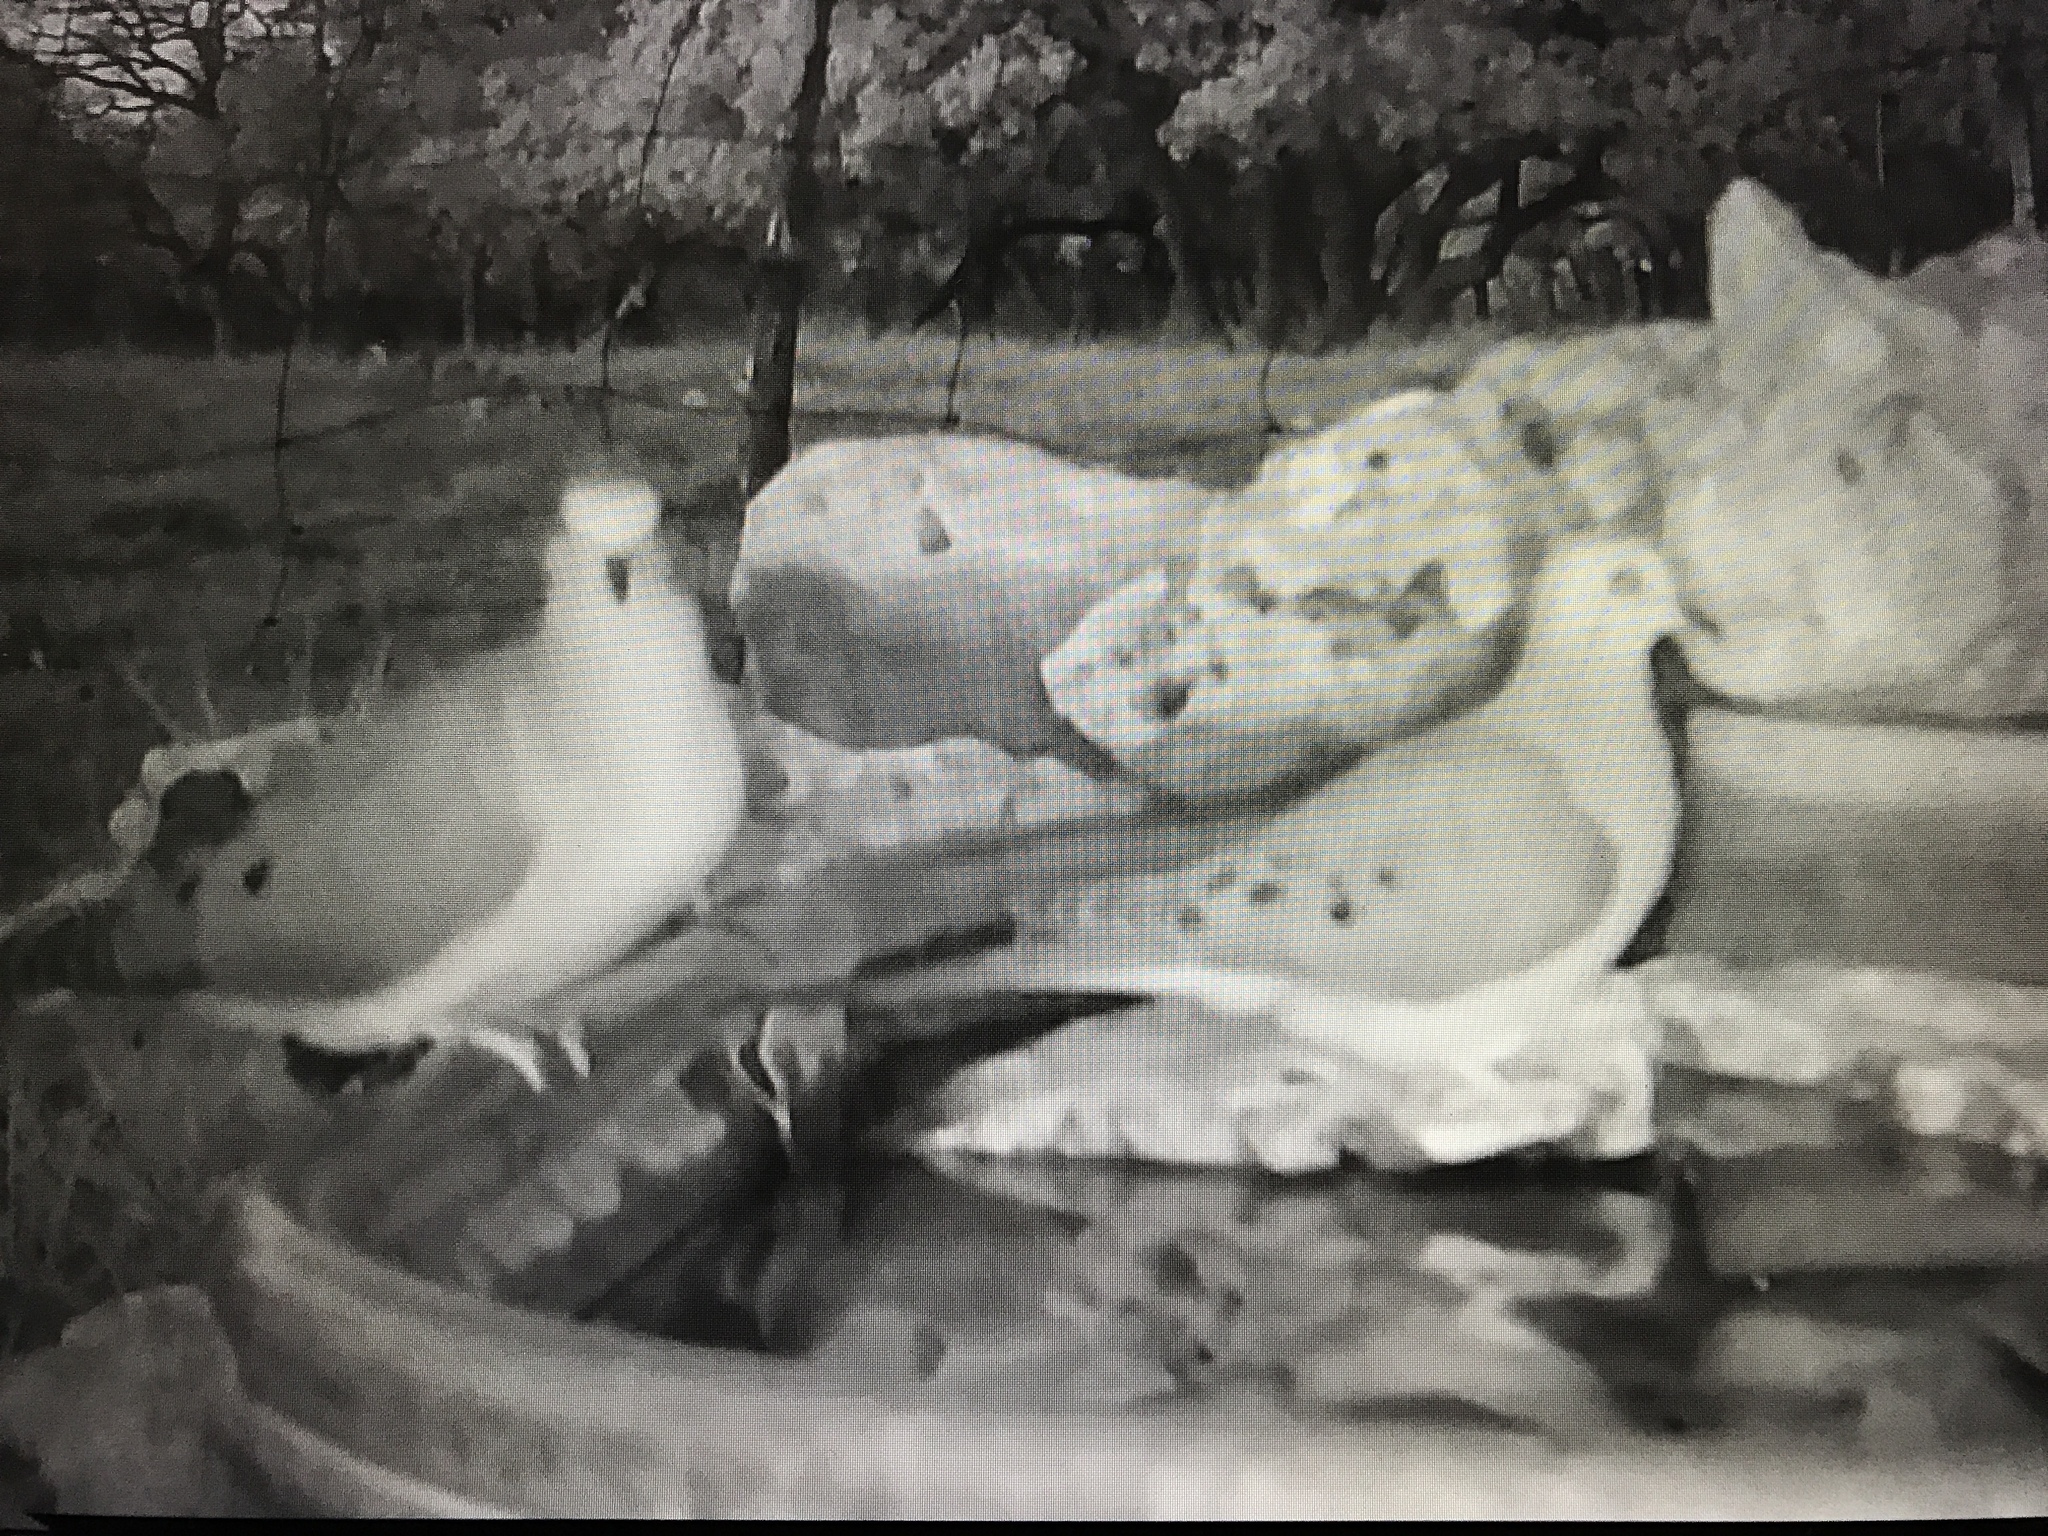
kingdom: Animalia
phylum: Chordata
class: Aves
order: Columbiformes
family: Columbidae
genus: Zenaida
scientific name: Zenaida macroura
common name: Mourning dove
